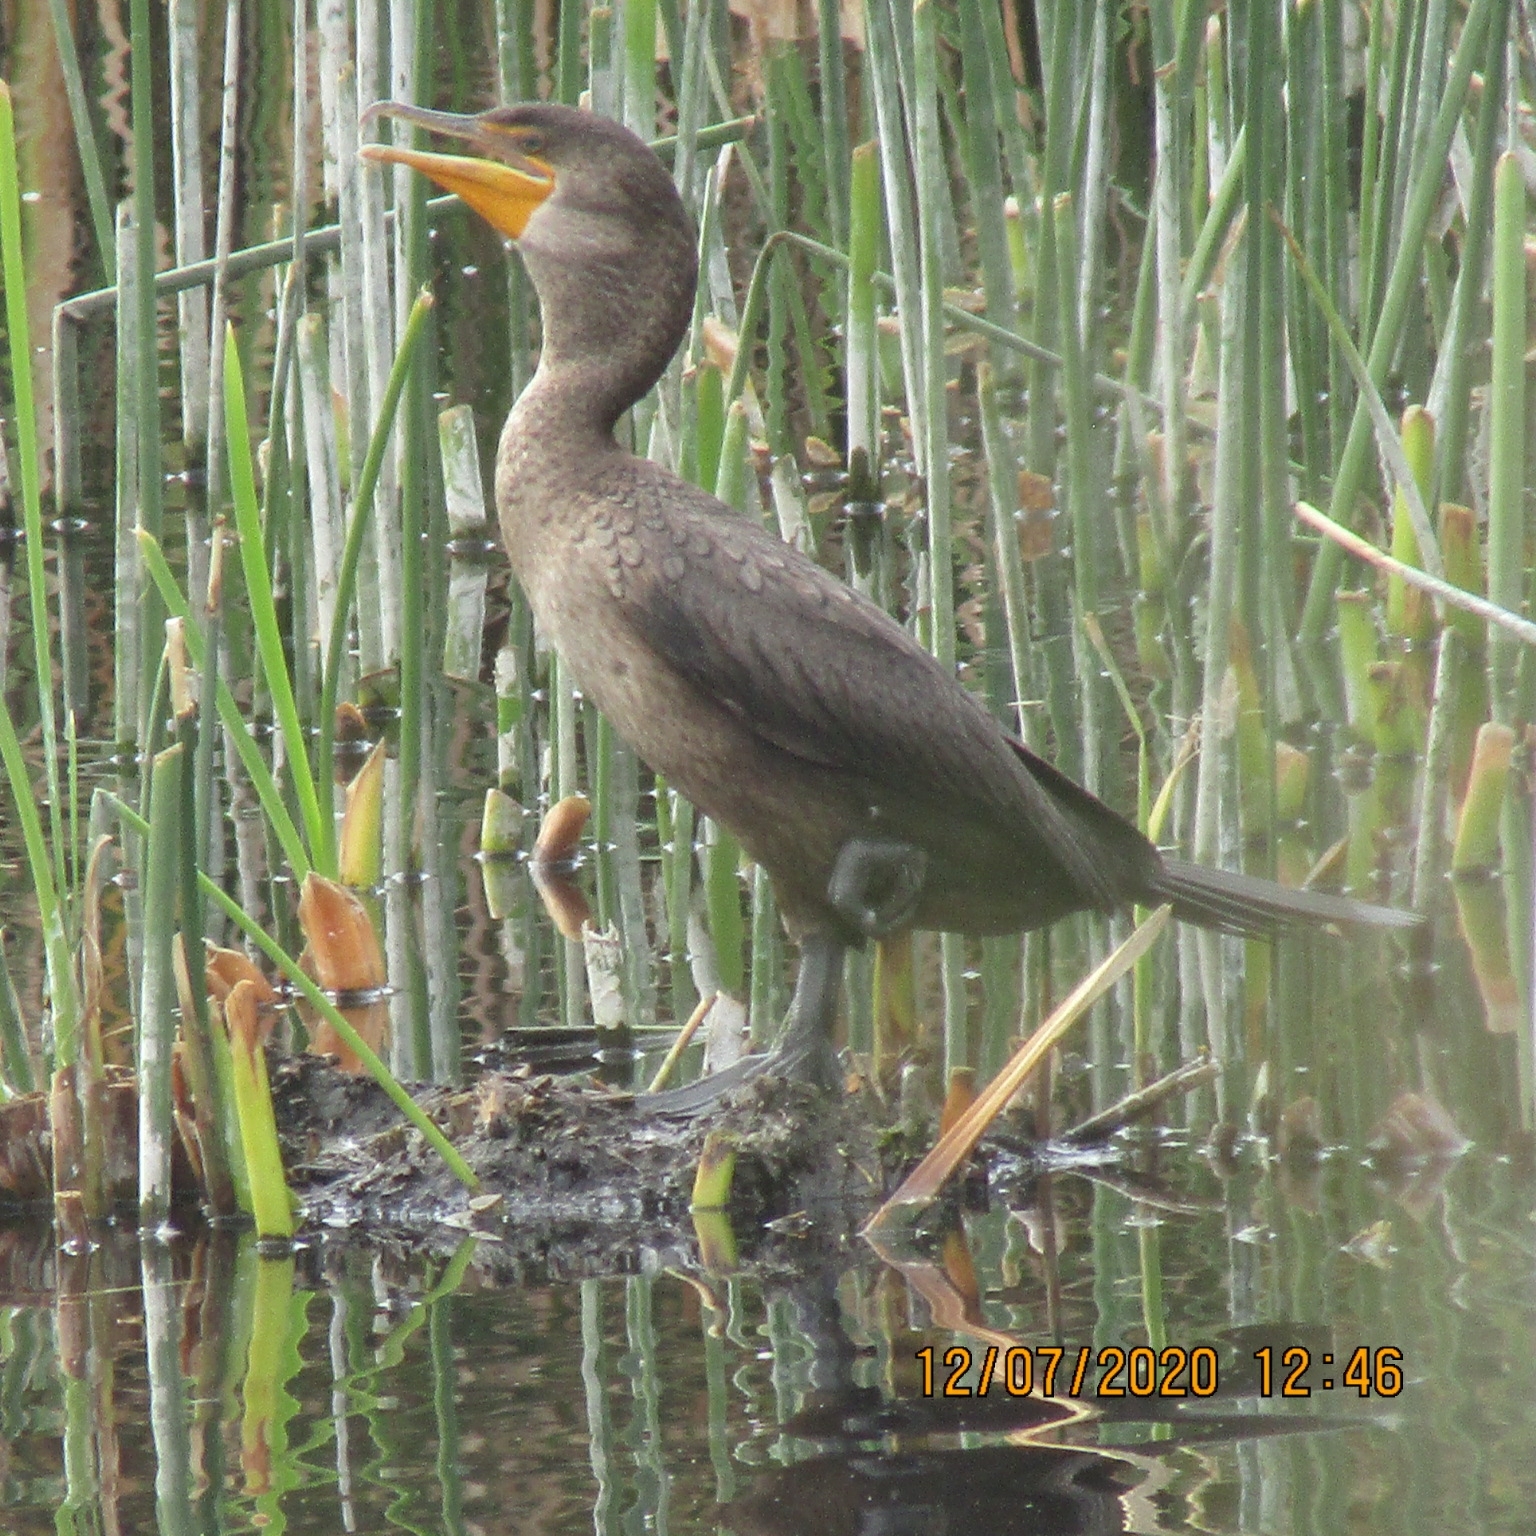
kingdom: Animalia
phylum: Chordata
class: Aves
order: Suliformes
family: Phalacrocoracidae
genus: Phalacrocorax
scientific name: Phalacrocorax auritus
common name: Double-crested cormorant
